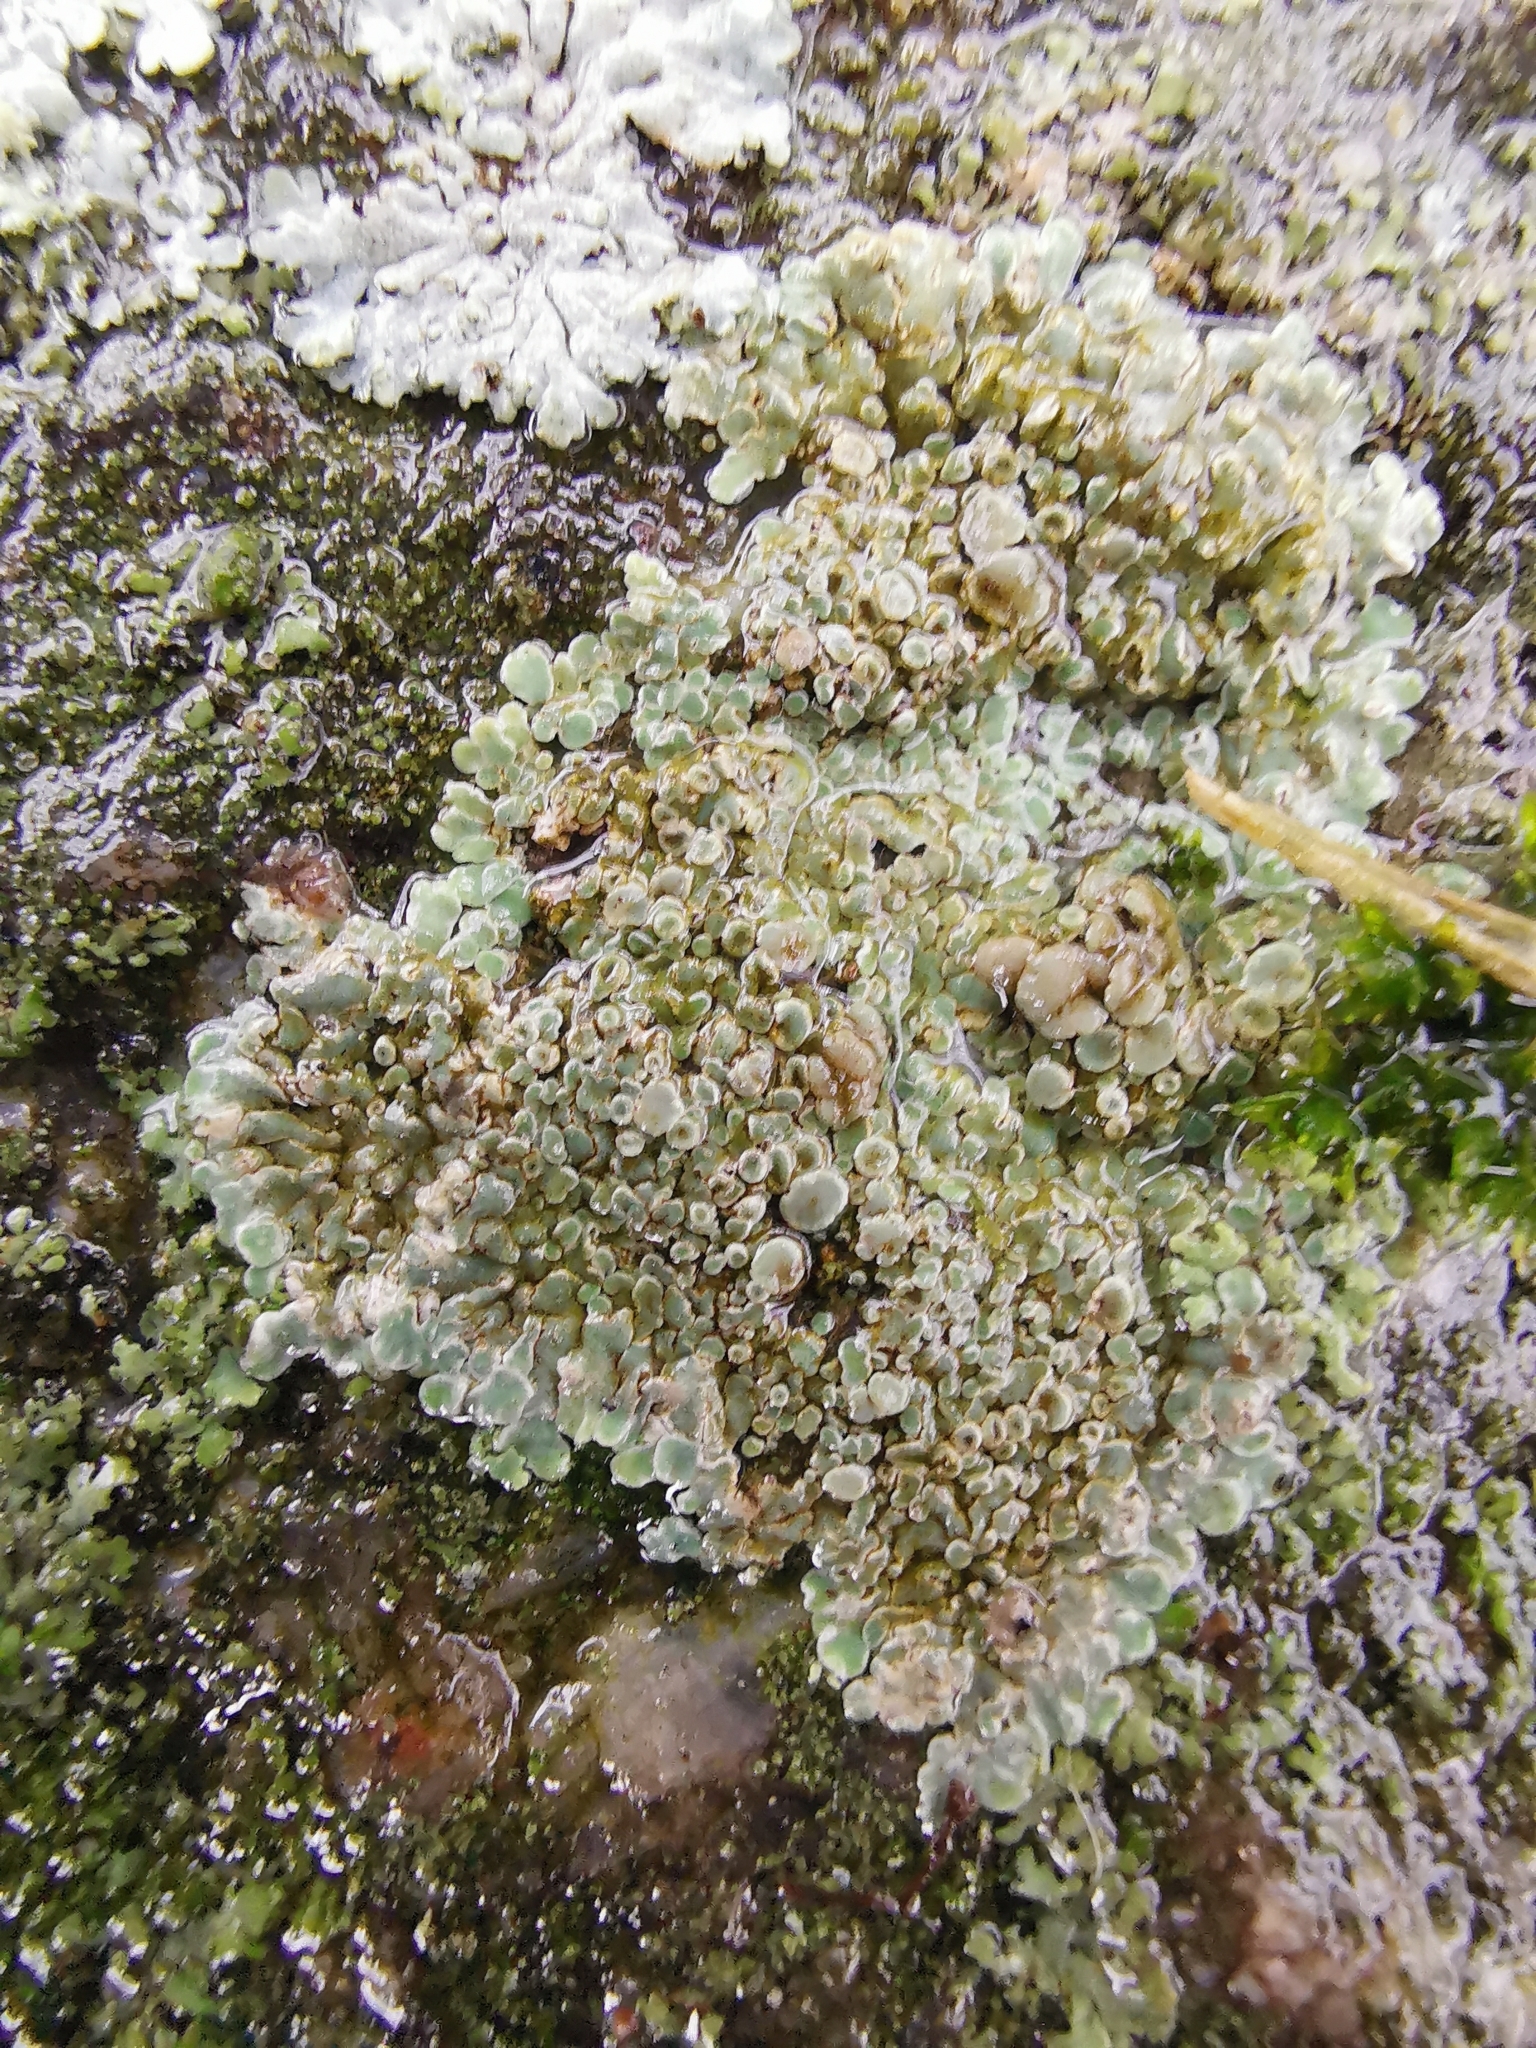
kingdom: Fungi
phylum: Ascomycota
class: Lecanoromycetes
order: Lecanorales
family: Lecanoraceae
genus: Protoparmeliopsis
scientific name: Protoparmeliopsis muralis
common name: Stonewall rim lichen
